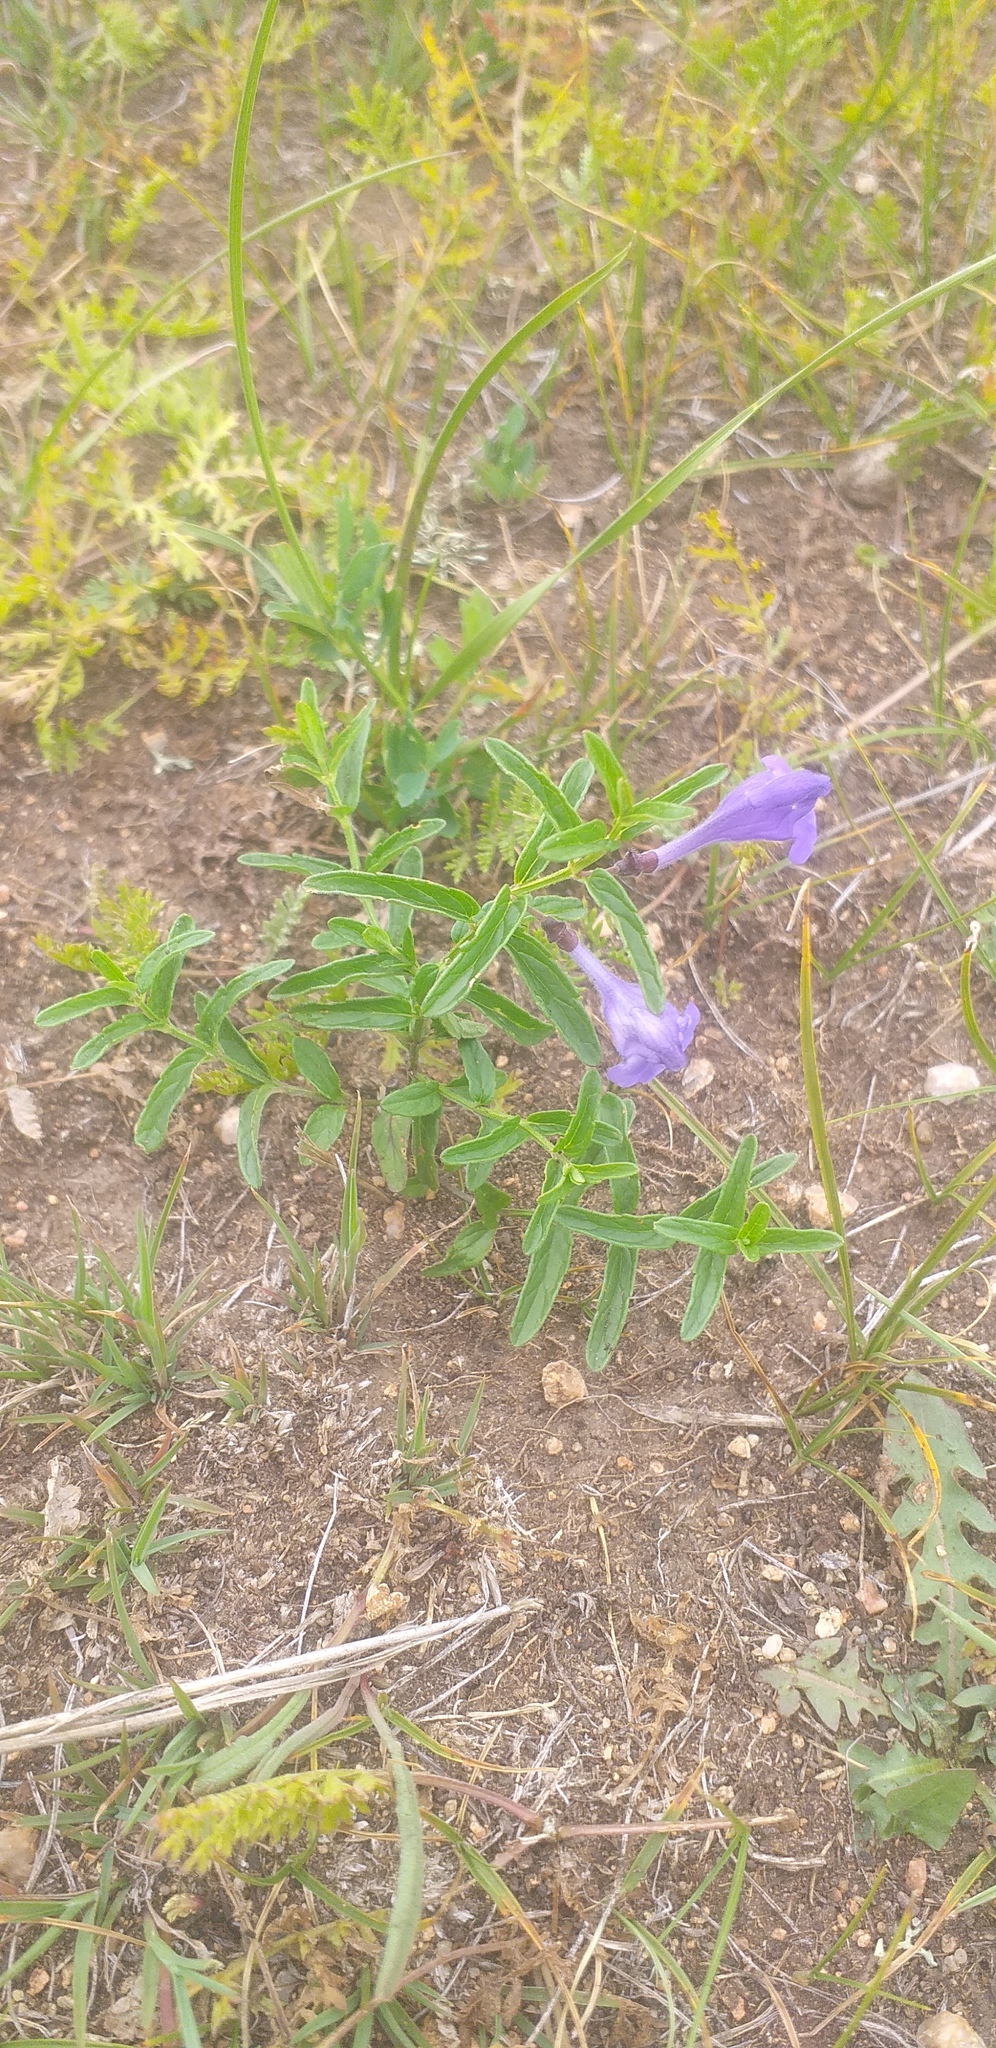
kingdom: Plantae
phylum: Tracheophyta
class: Magnoliopsida
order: Lamiales
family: Lamiaceae
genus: Scutellaria
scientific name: Scutellaria galericulata
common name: Skullcap
